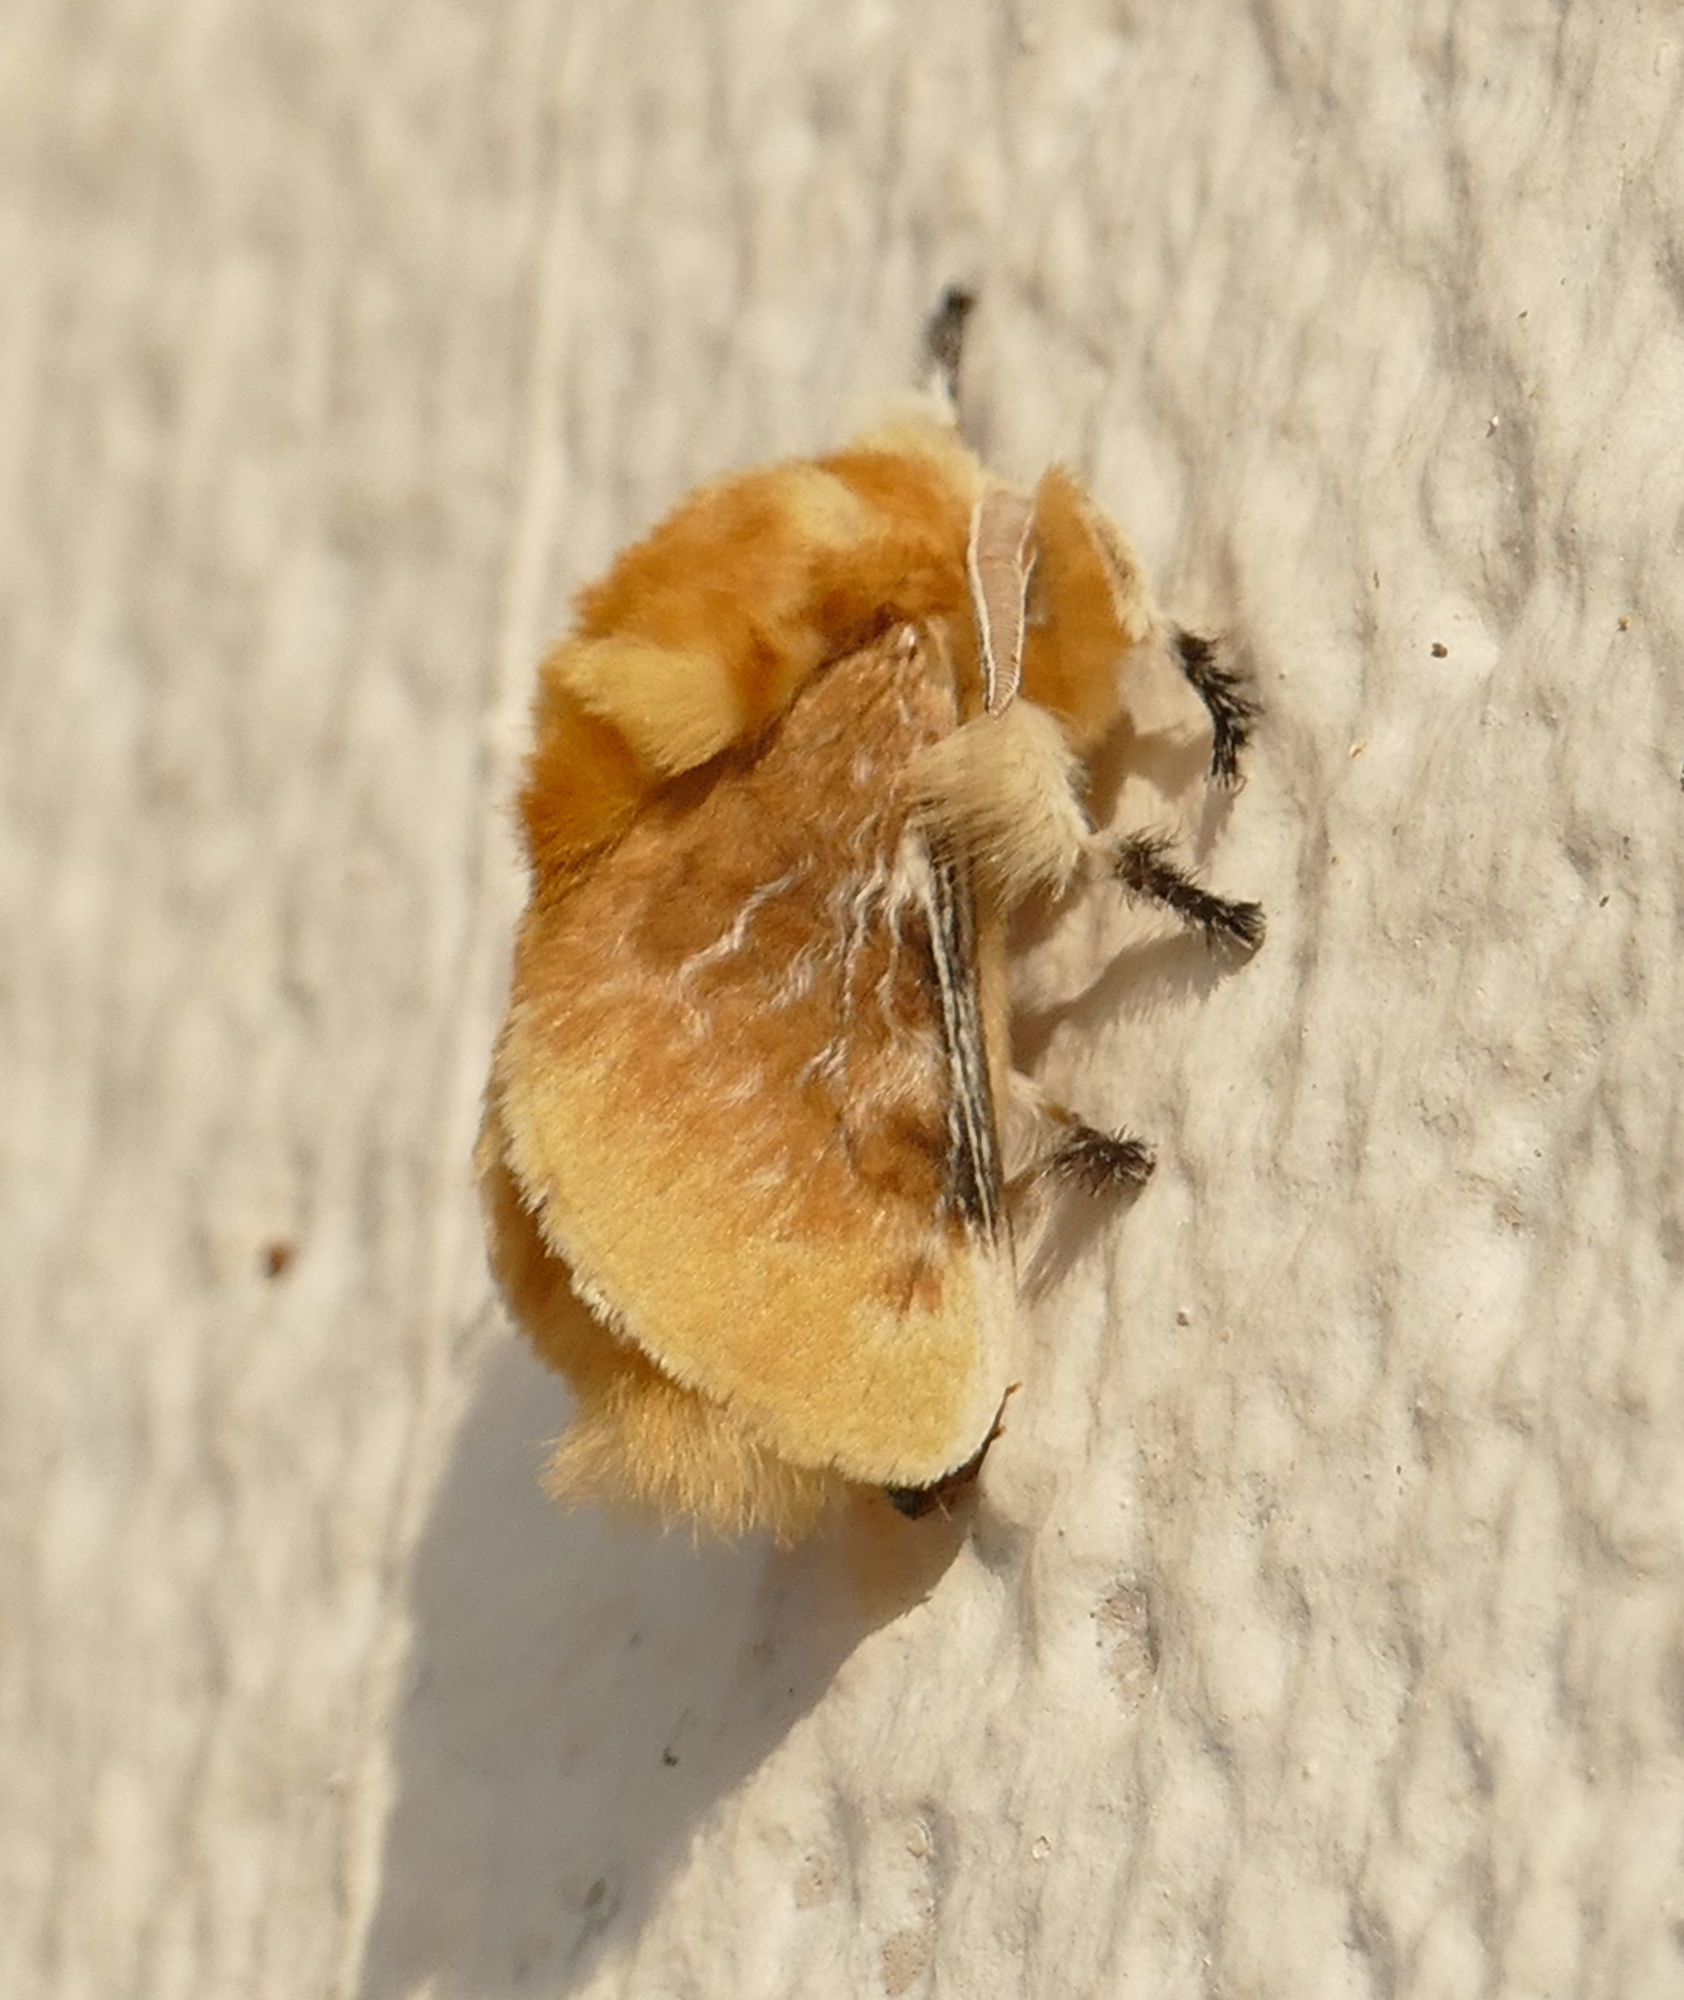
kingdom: Animalia
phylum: Arthropoda
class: Insecta
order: Lepidoptera
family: Megalopygidae
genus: Megalopyge
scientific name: Megalopyge opercularis
